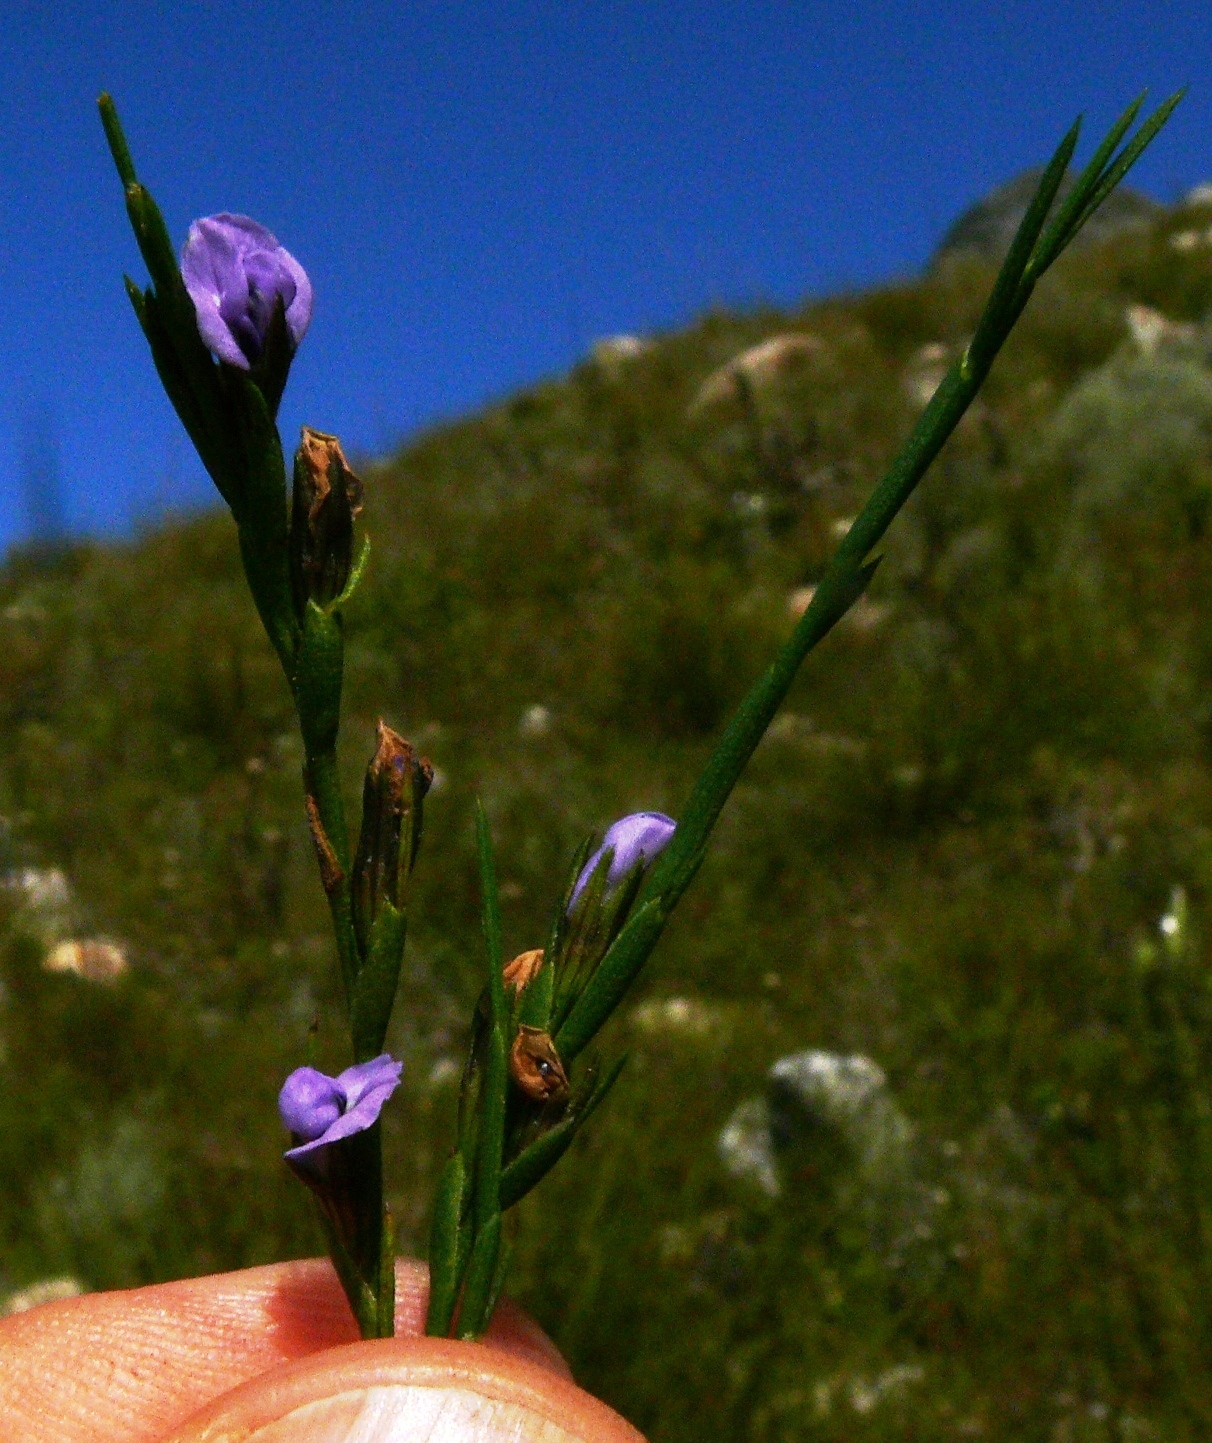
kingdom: Plantae
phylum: Tracheophyta
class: Magnoliopsida
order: Fabales
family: Fabaceae
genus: Psoralea
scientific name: Psoralea restioides
